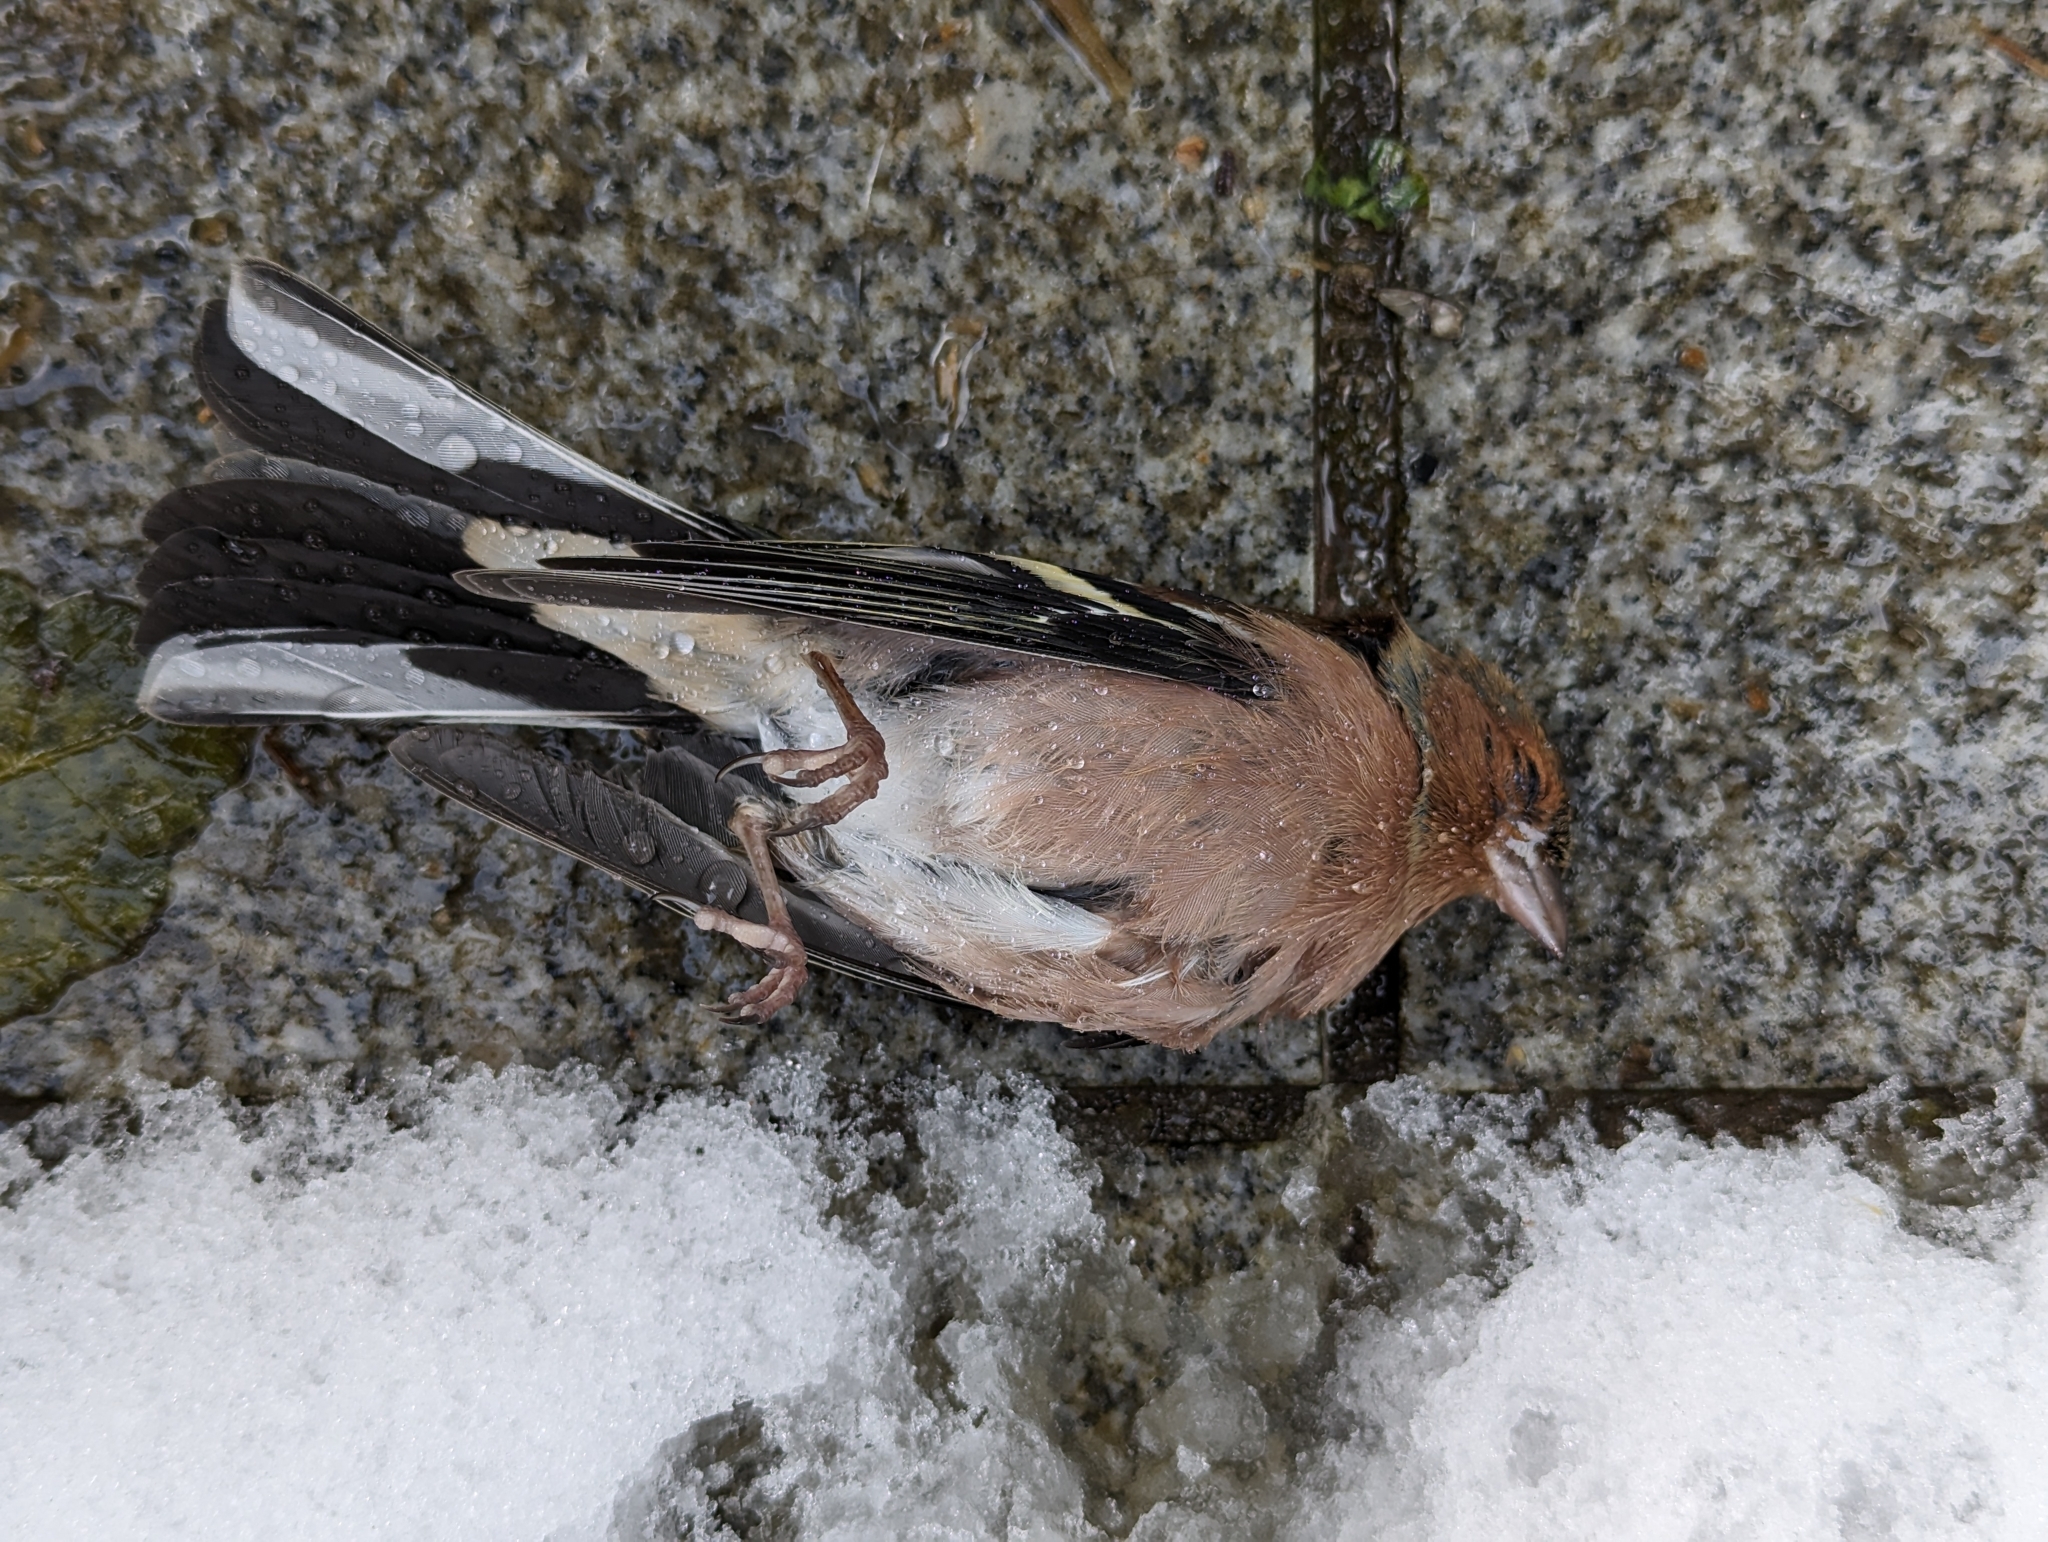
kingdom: Animalia
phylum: Chordata
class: Aves
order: Passeriformes
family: Fringillidae
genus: Fringilla
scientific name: Fringilla coelebs
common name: Common chaffinch
